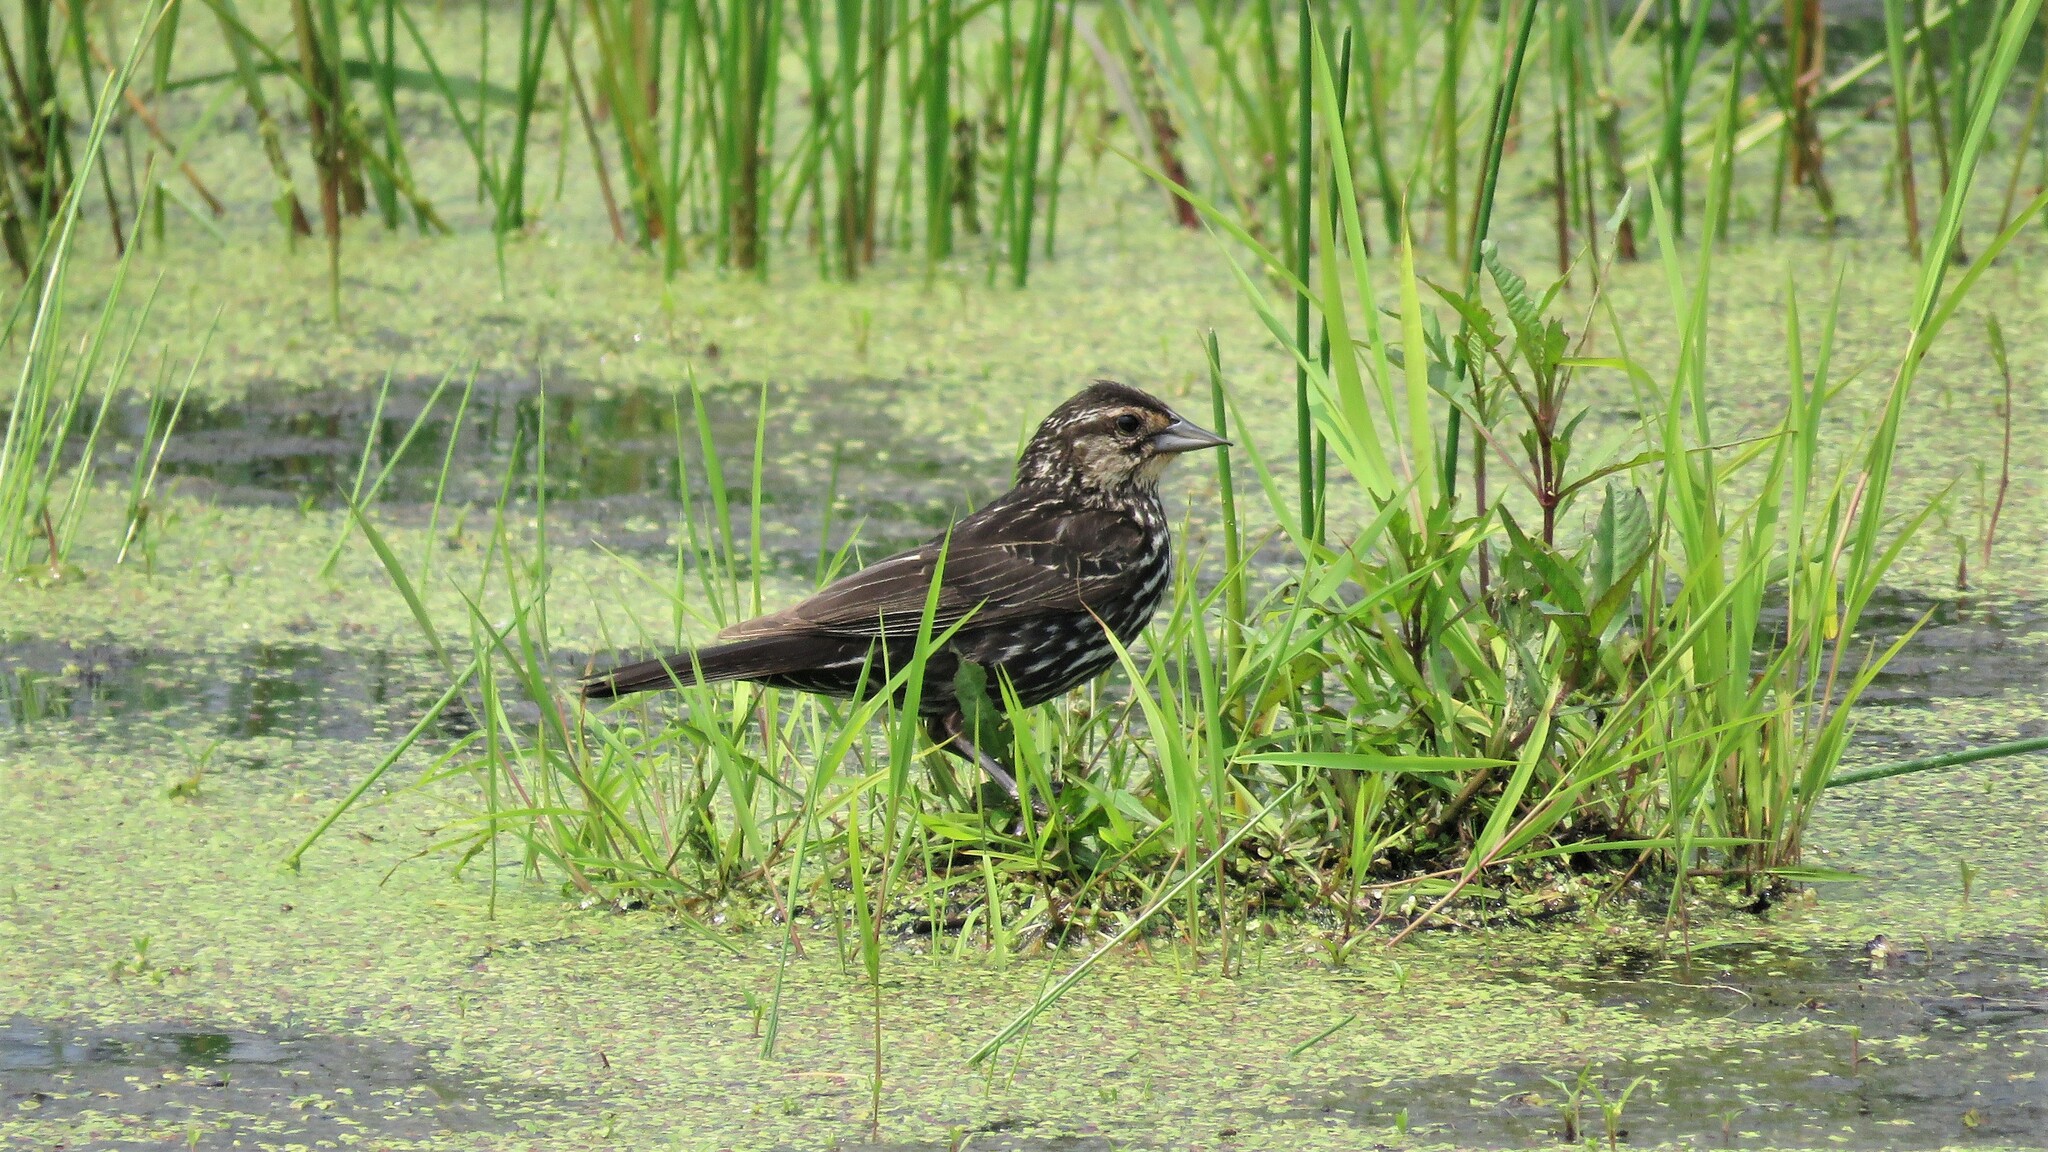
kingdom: Animalia
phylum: Chordata
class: Aves
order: Passeriformes
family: Icteridae
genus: Agelaius
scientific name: Agelaius phoeniceus
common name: Red-winged blackbird
